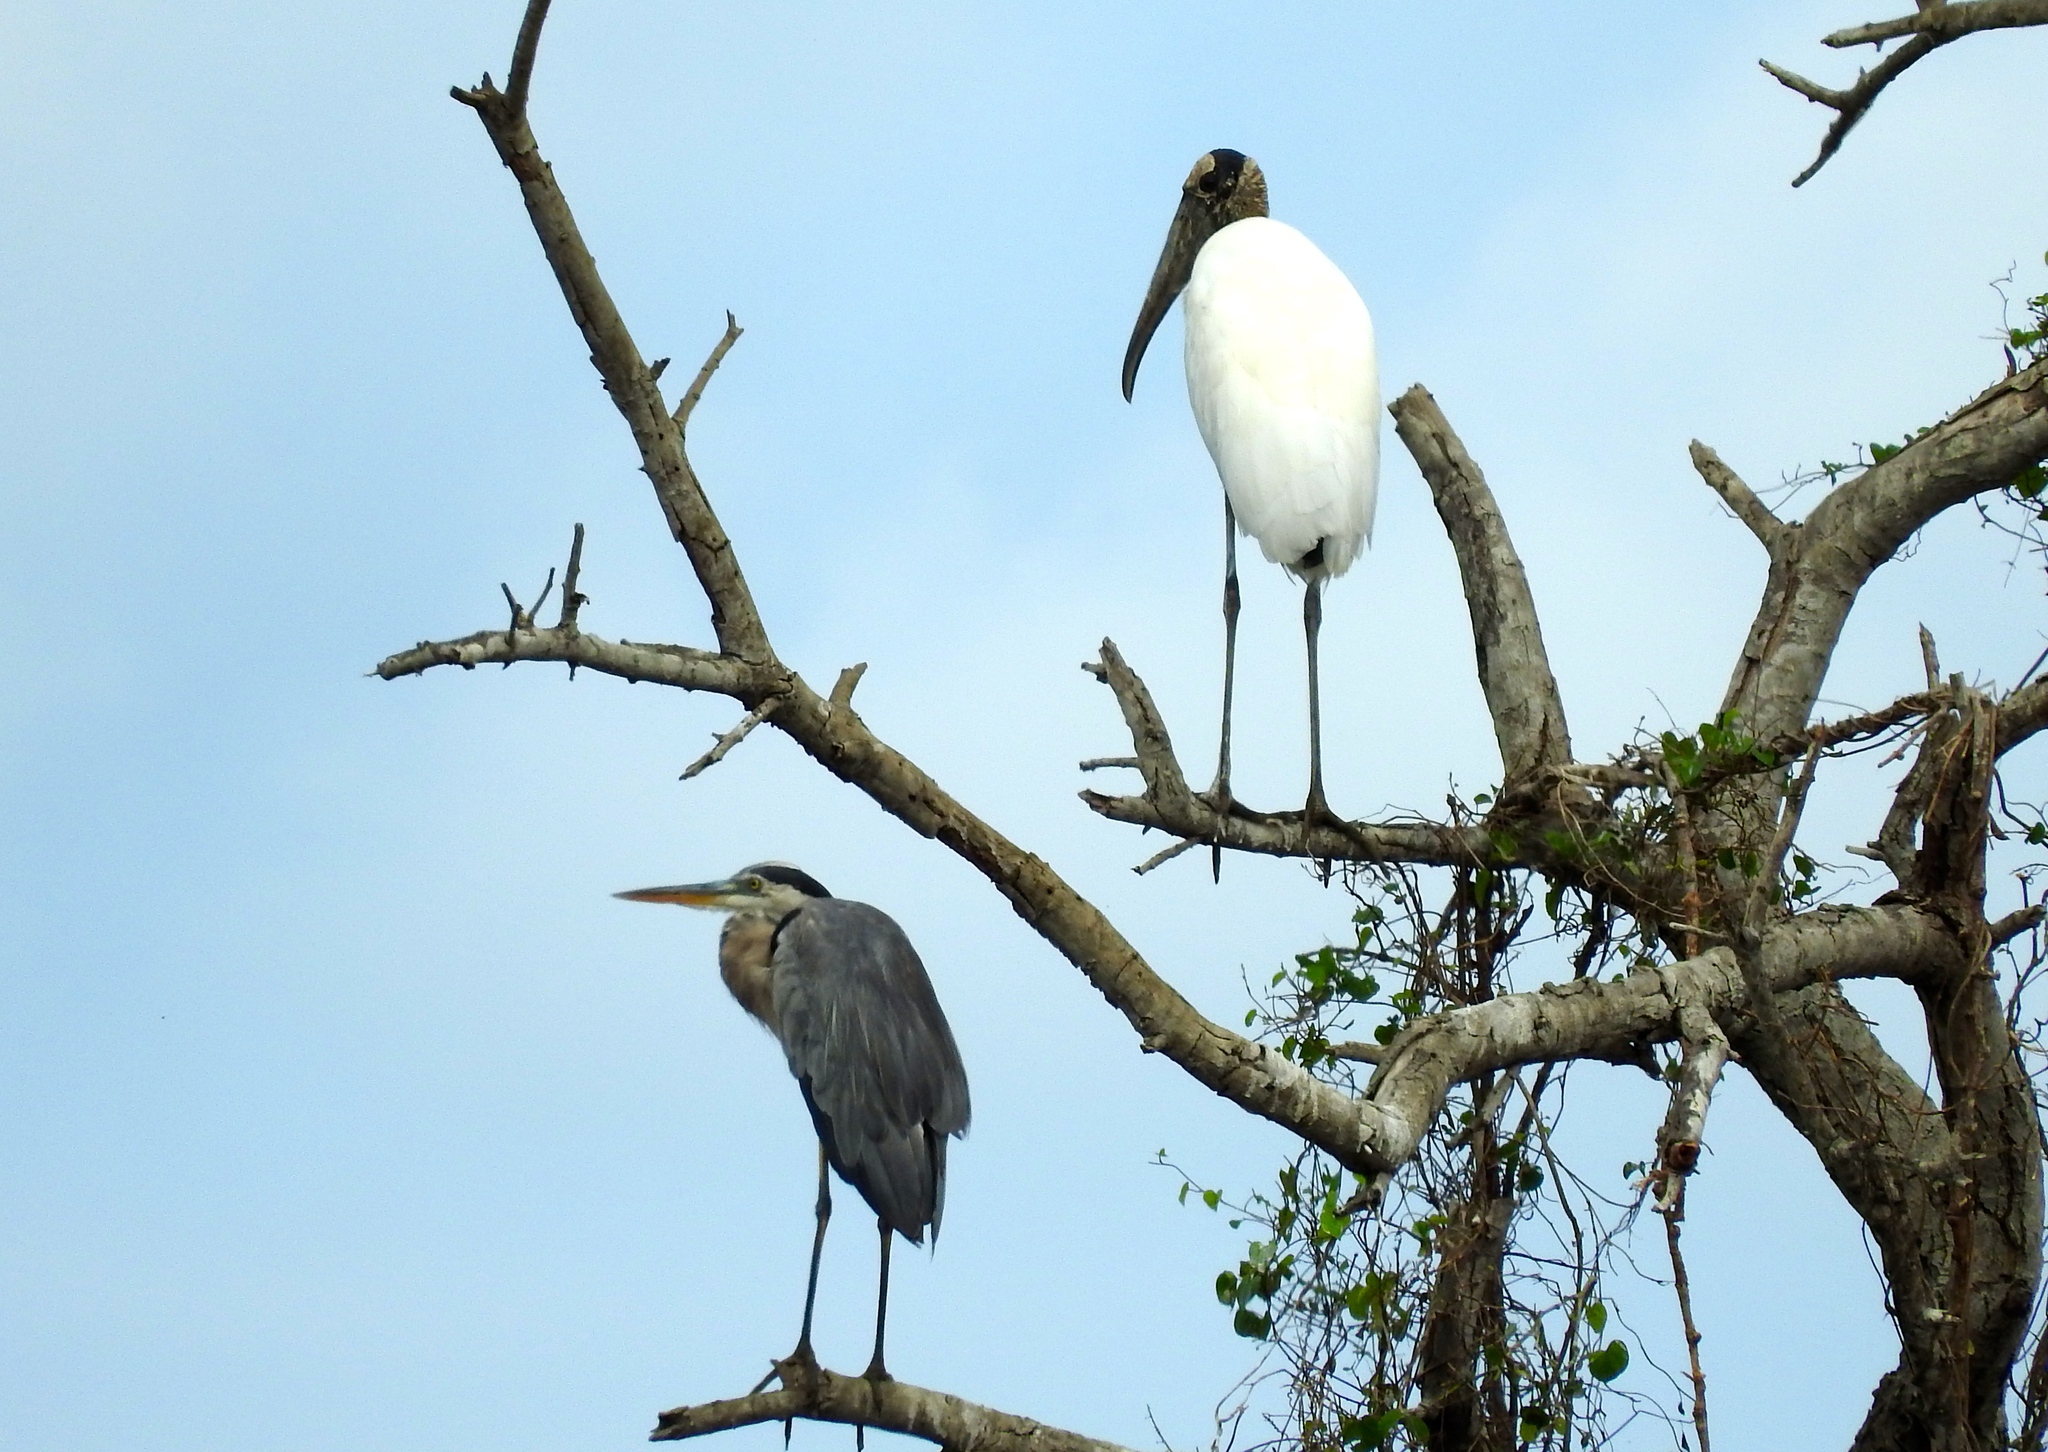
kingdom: Animalia
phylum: Chordata
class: Aves
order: Ciconiiformes
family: Ciconiidae
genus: Mycteria
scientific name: Mycteria americana
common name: Wood stork
